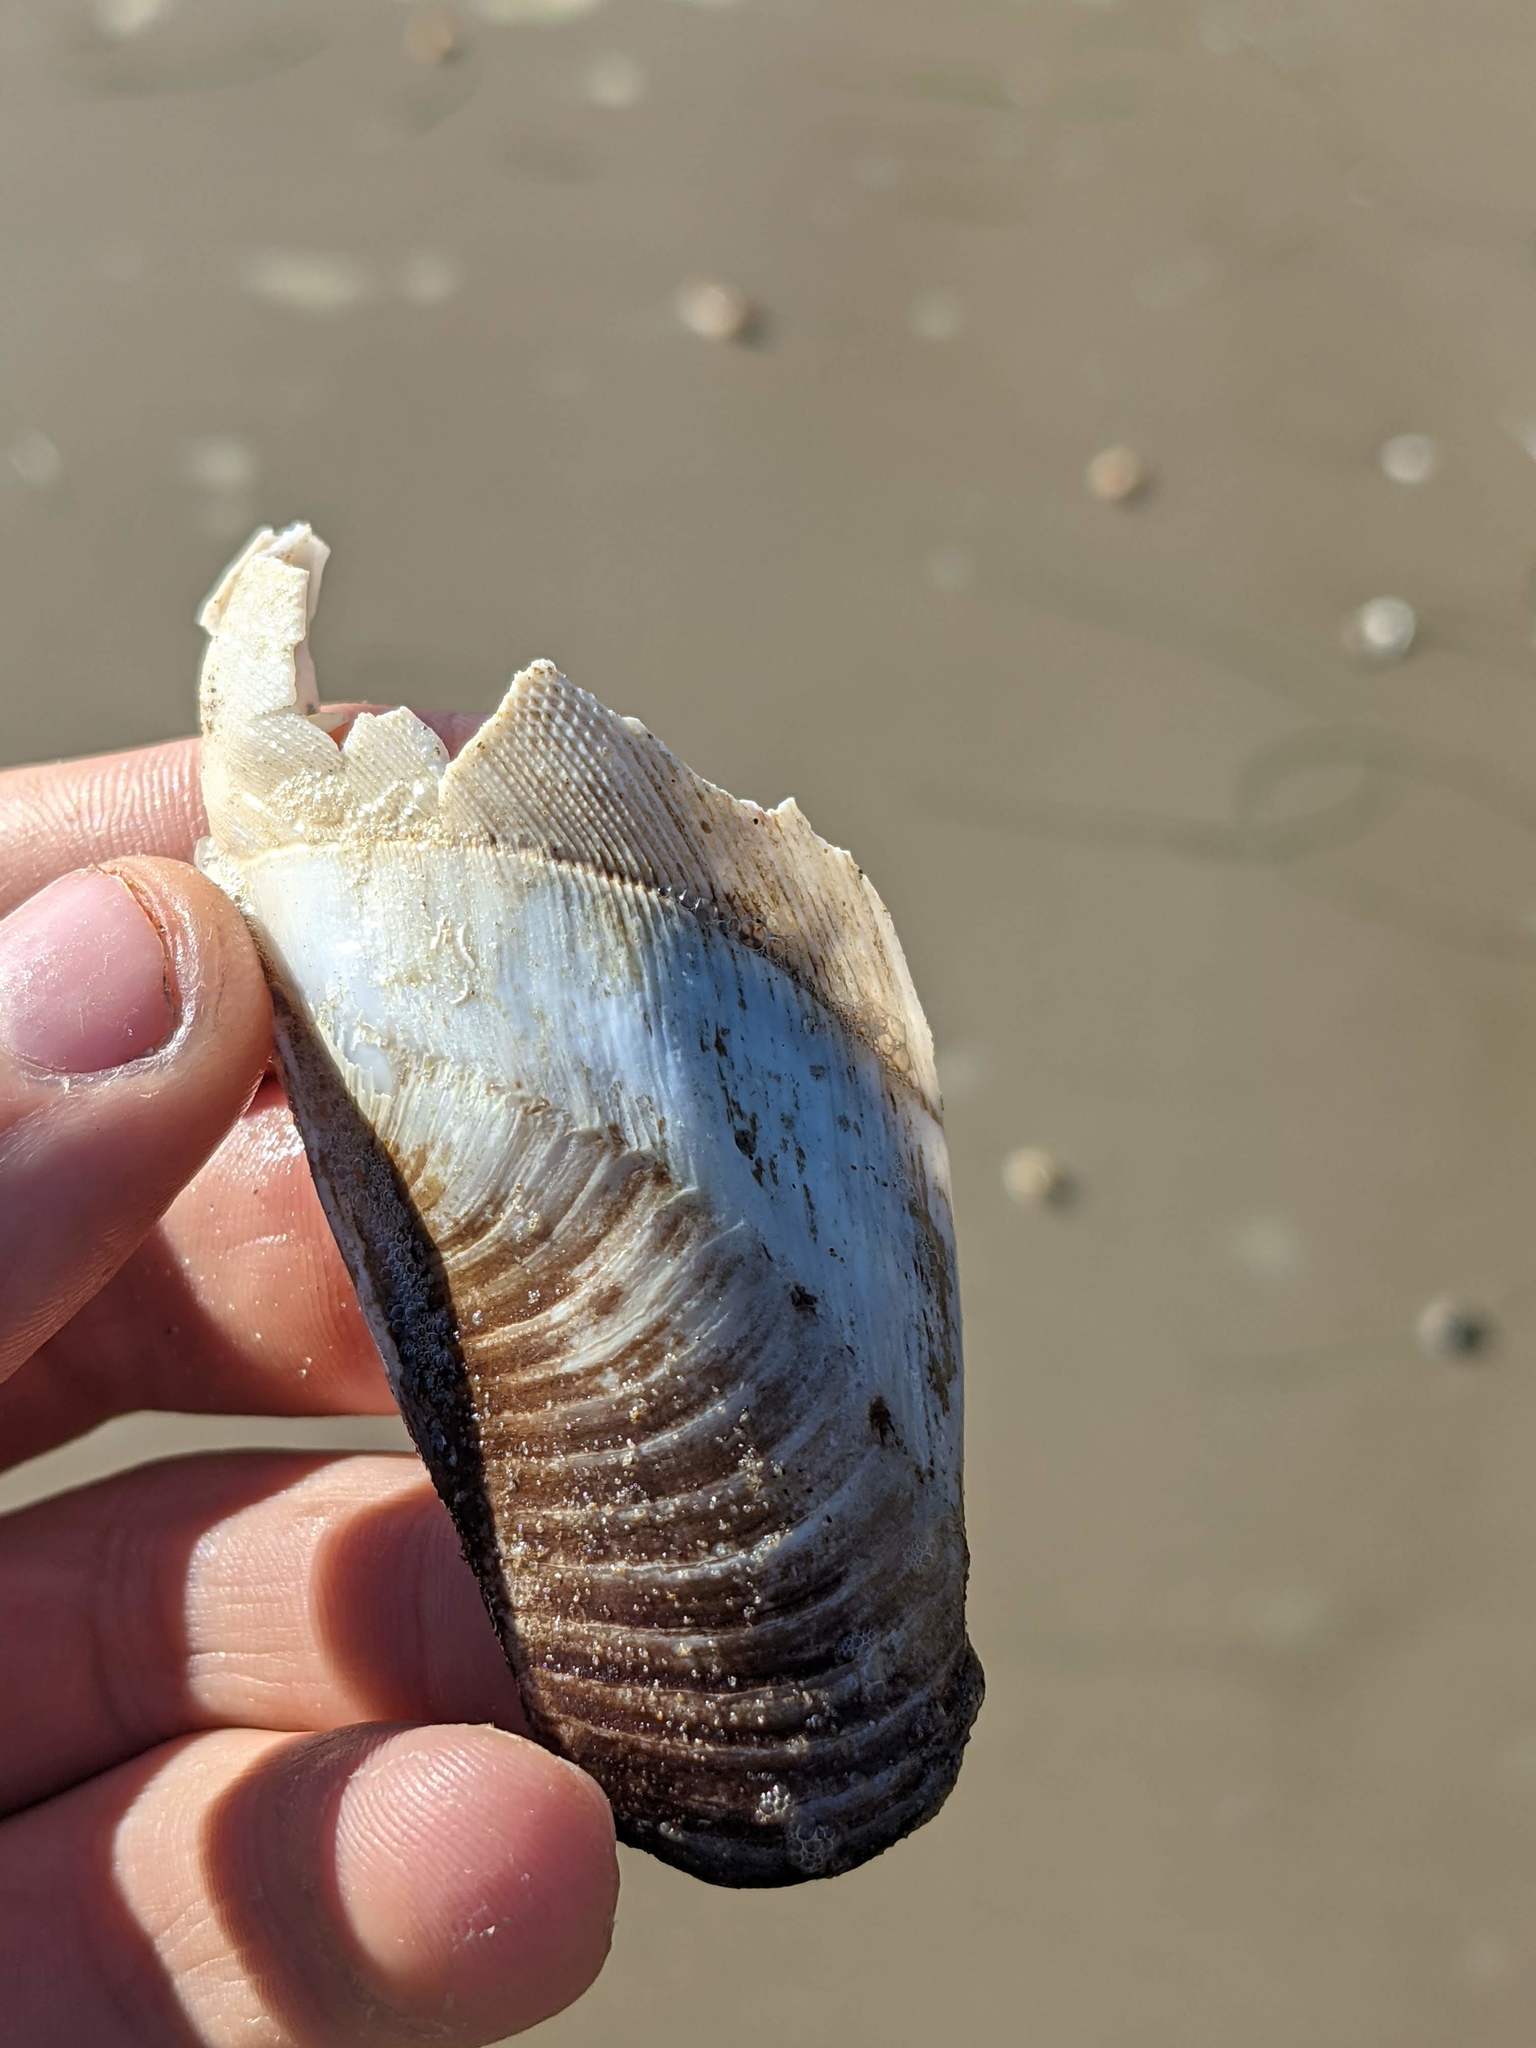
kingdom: Animalia
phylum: Mollusca
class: Bivalvia
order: Myida
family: Pholadidae
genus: Parapholas
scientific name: Parapholas californica
